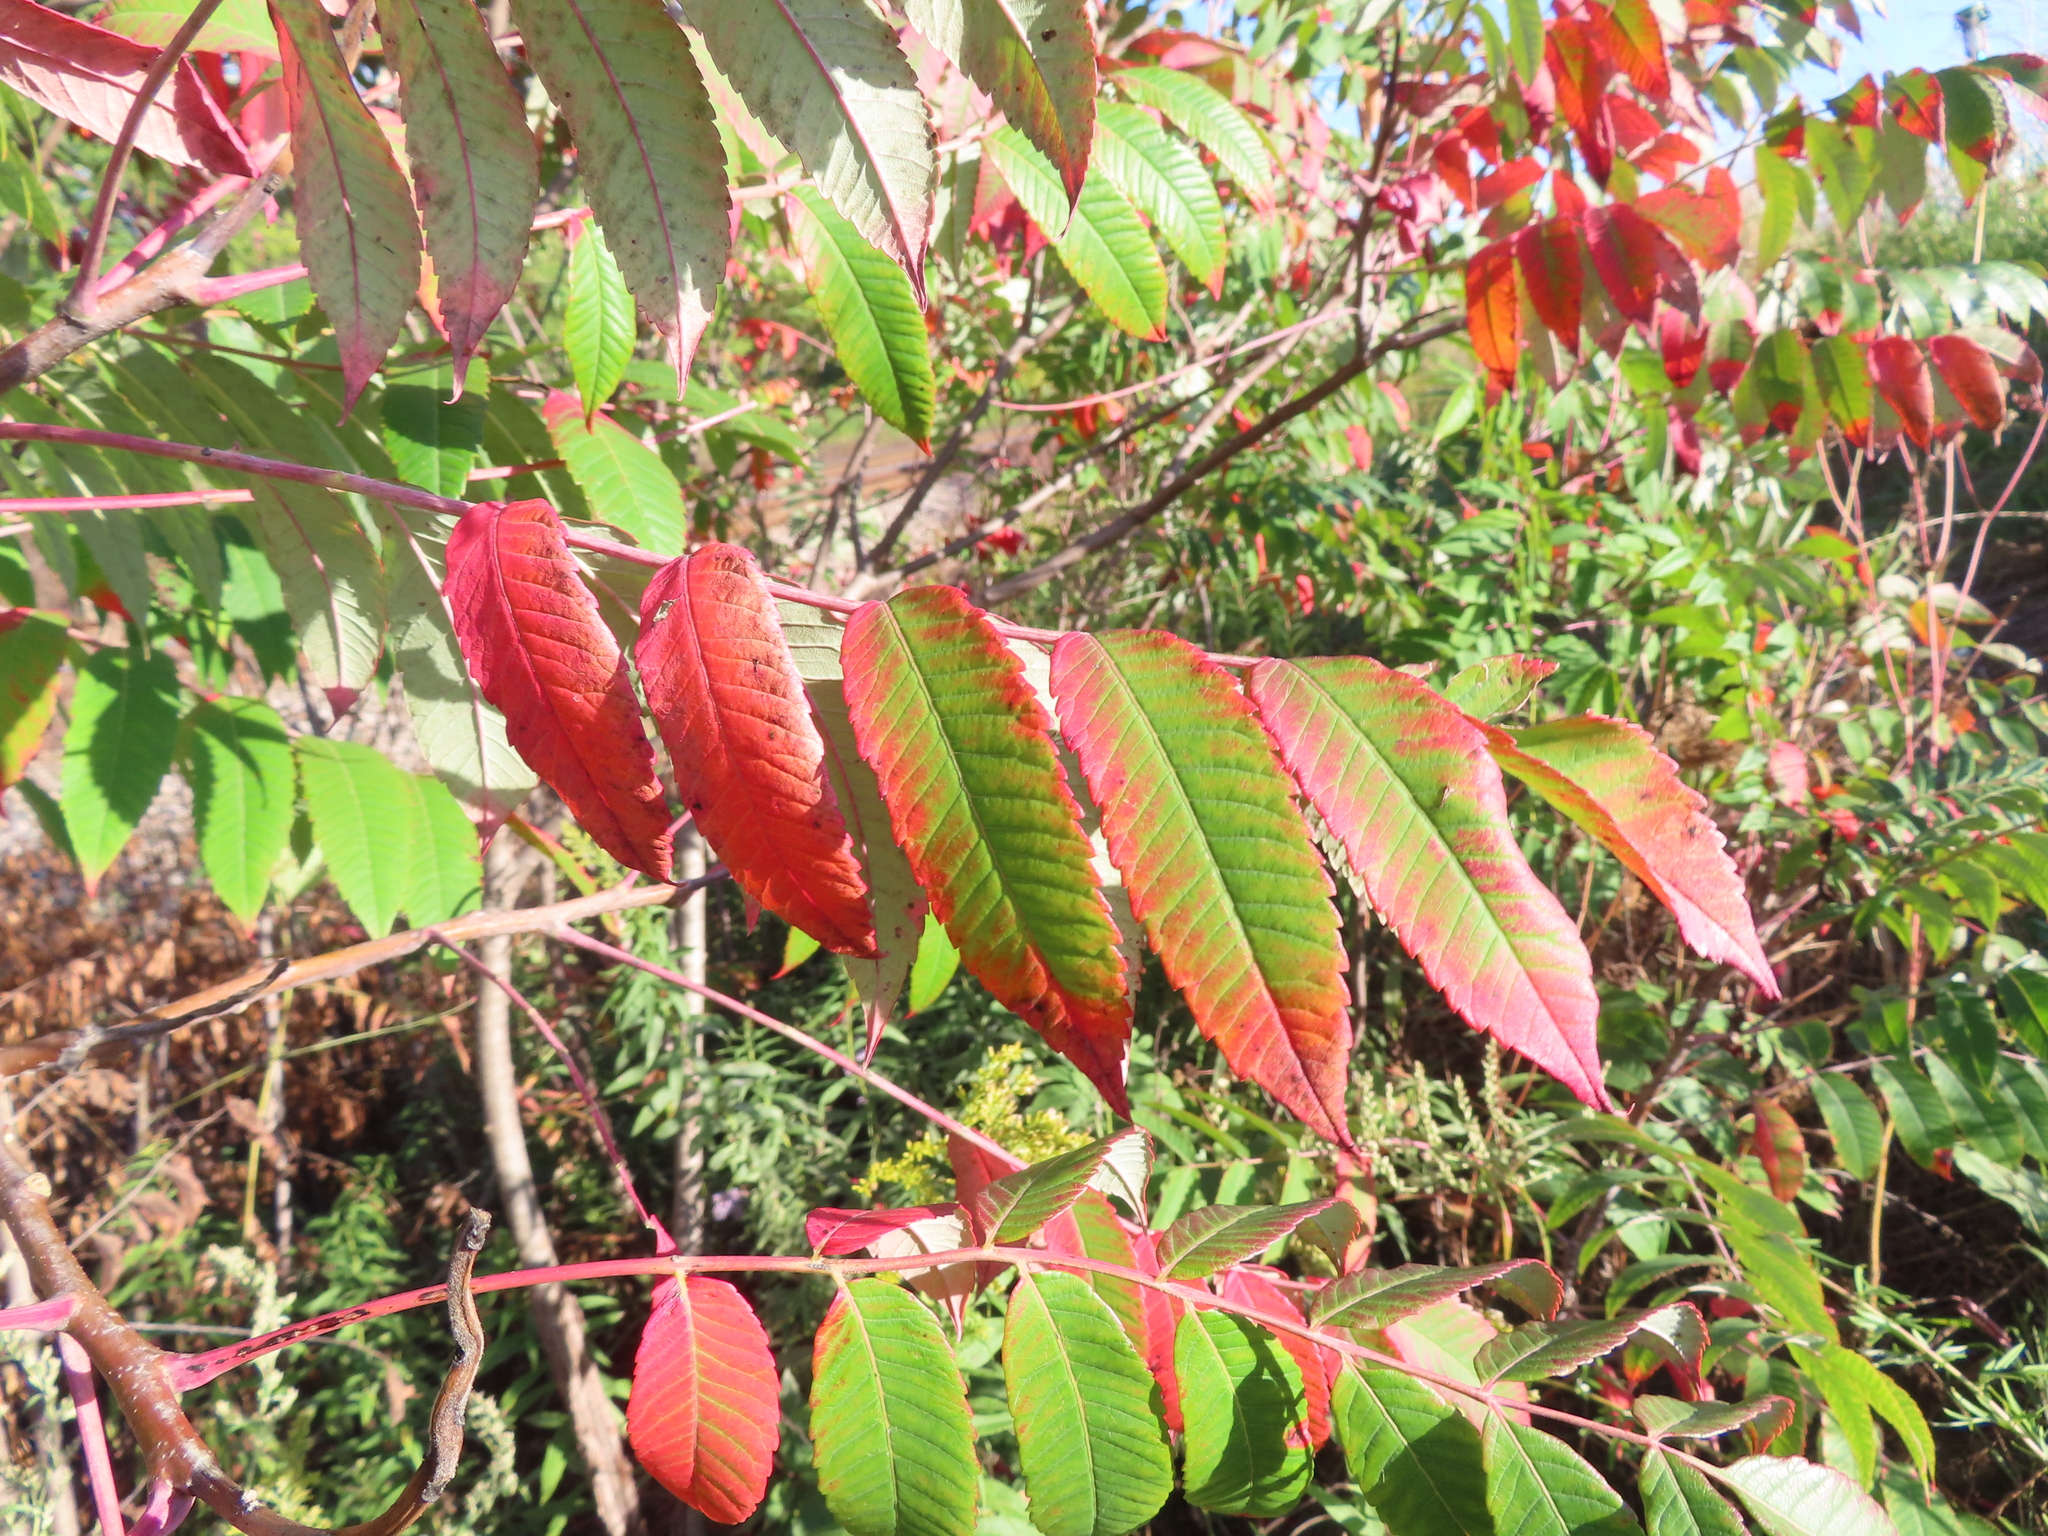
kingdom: Plantae
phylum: Tracheophyta
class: Magnoliopsida
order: Sapindales
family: Anacardiaceae
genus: Rhus
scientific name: Rhus glabra
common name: Scarlet sumac
